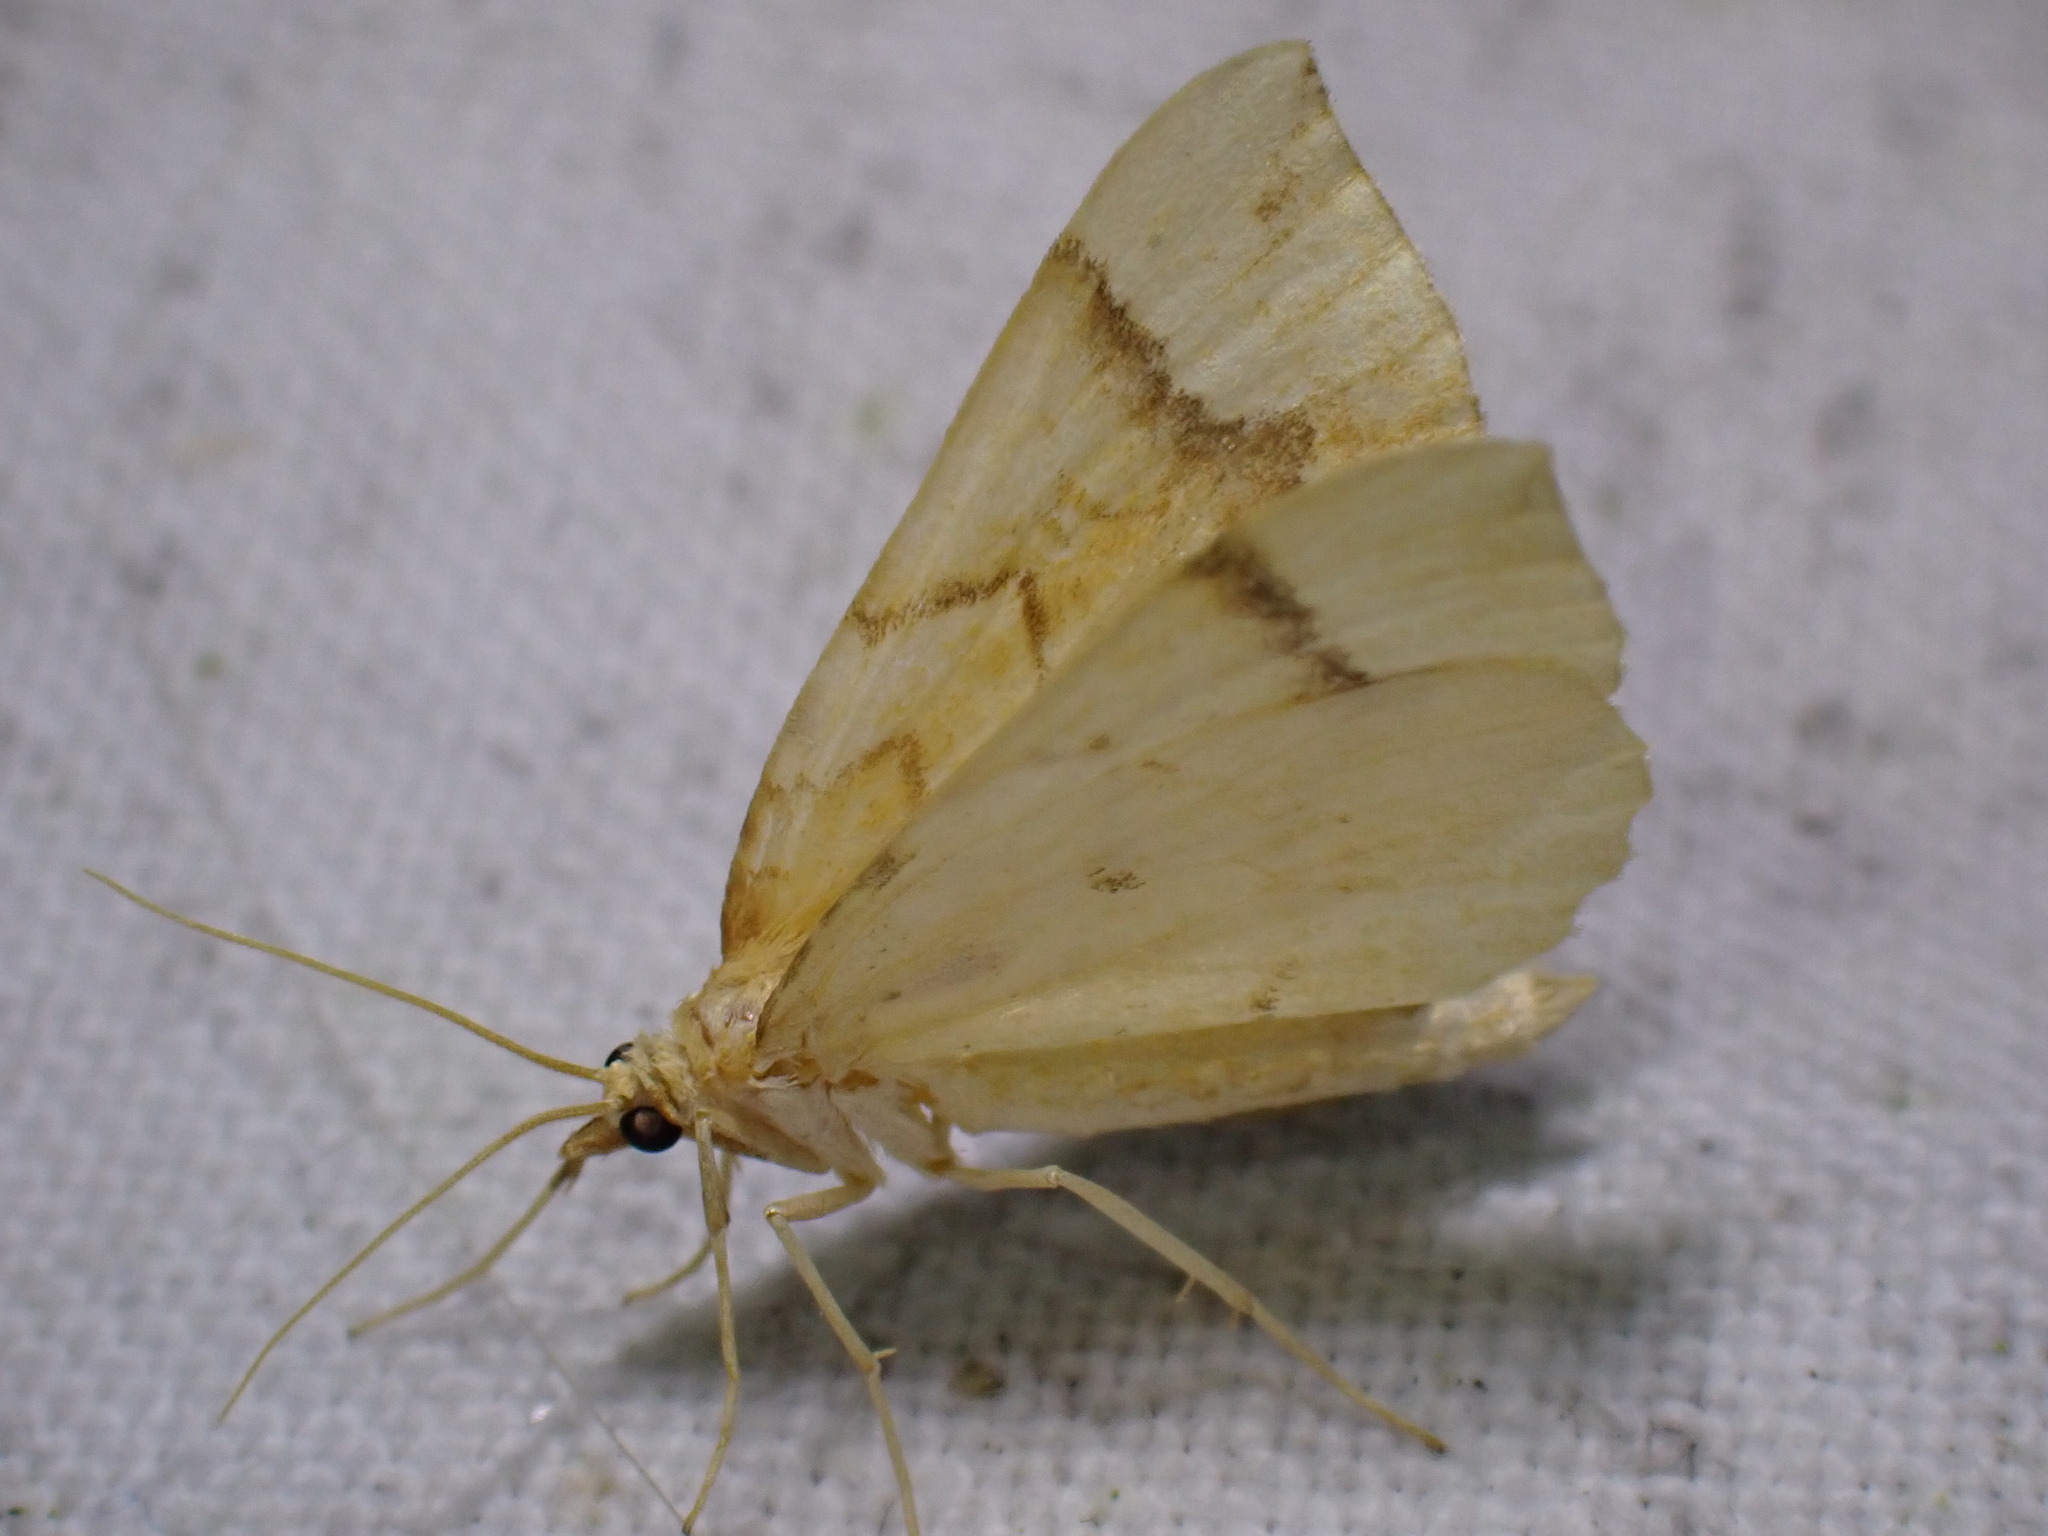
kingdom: Animalia
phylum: Arthropoda
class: Insecta
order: Lepidoptera
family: Geometridae
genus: Eulithis
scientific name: Eulithis mellinata
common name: Spinach
